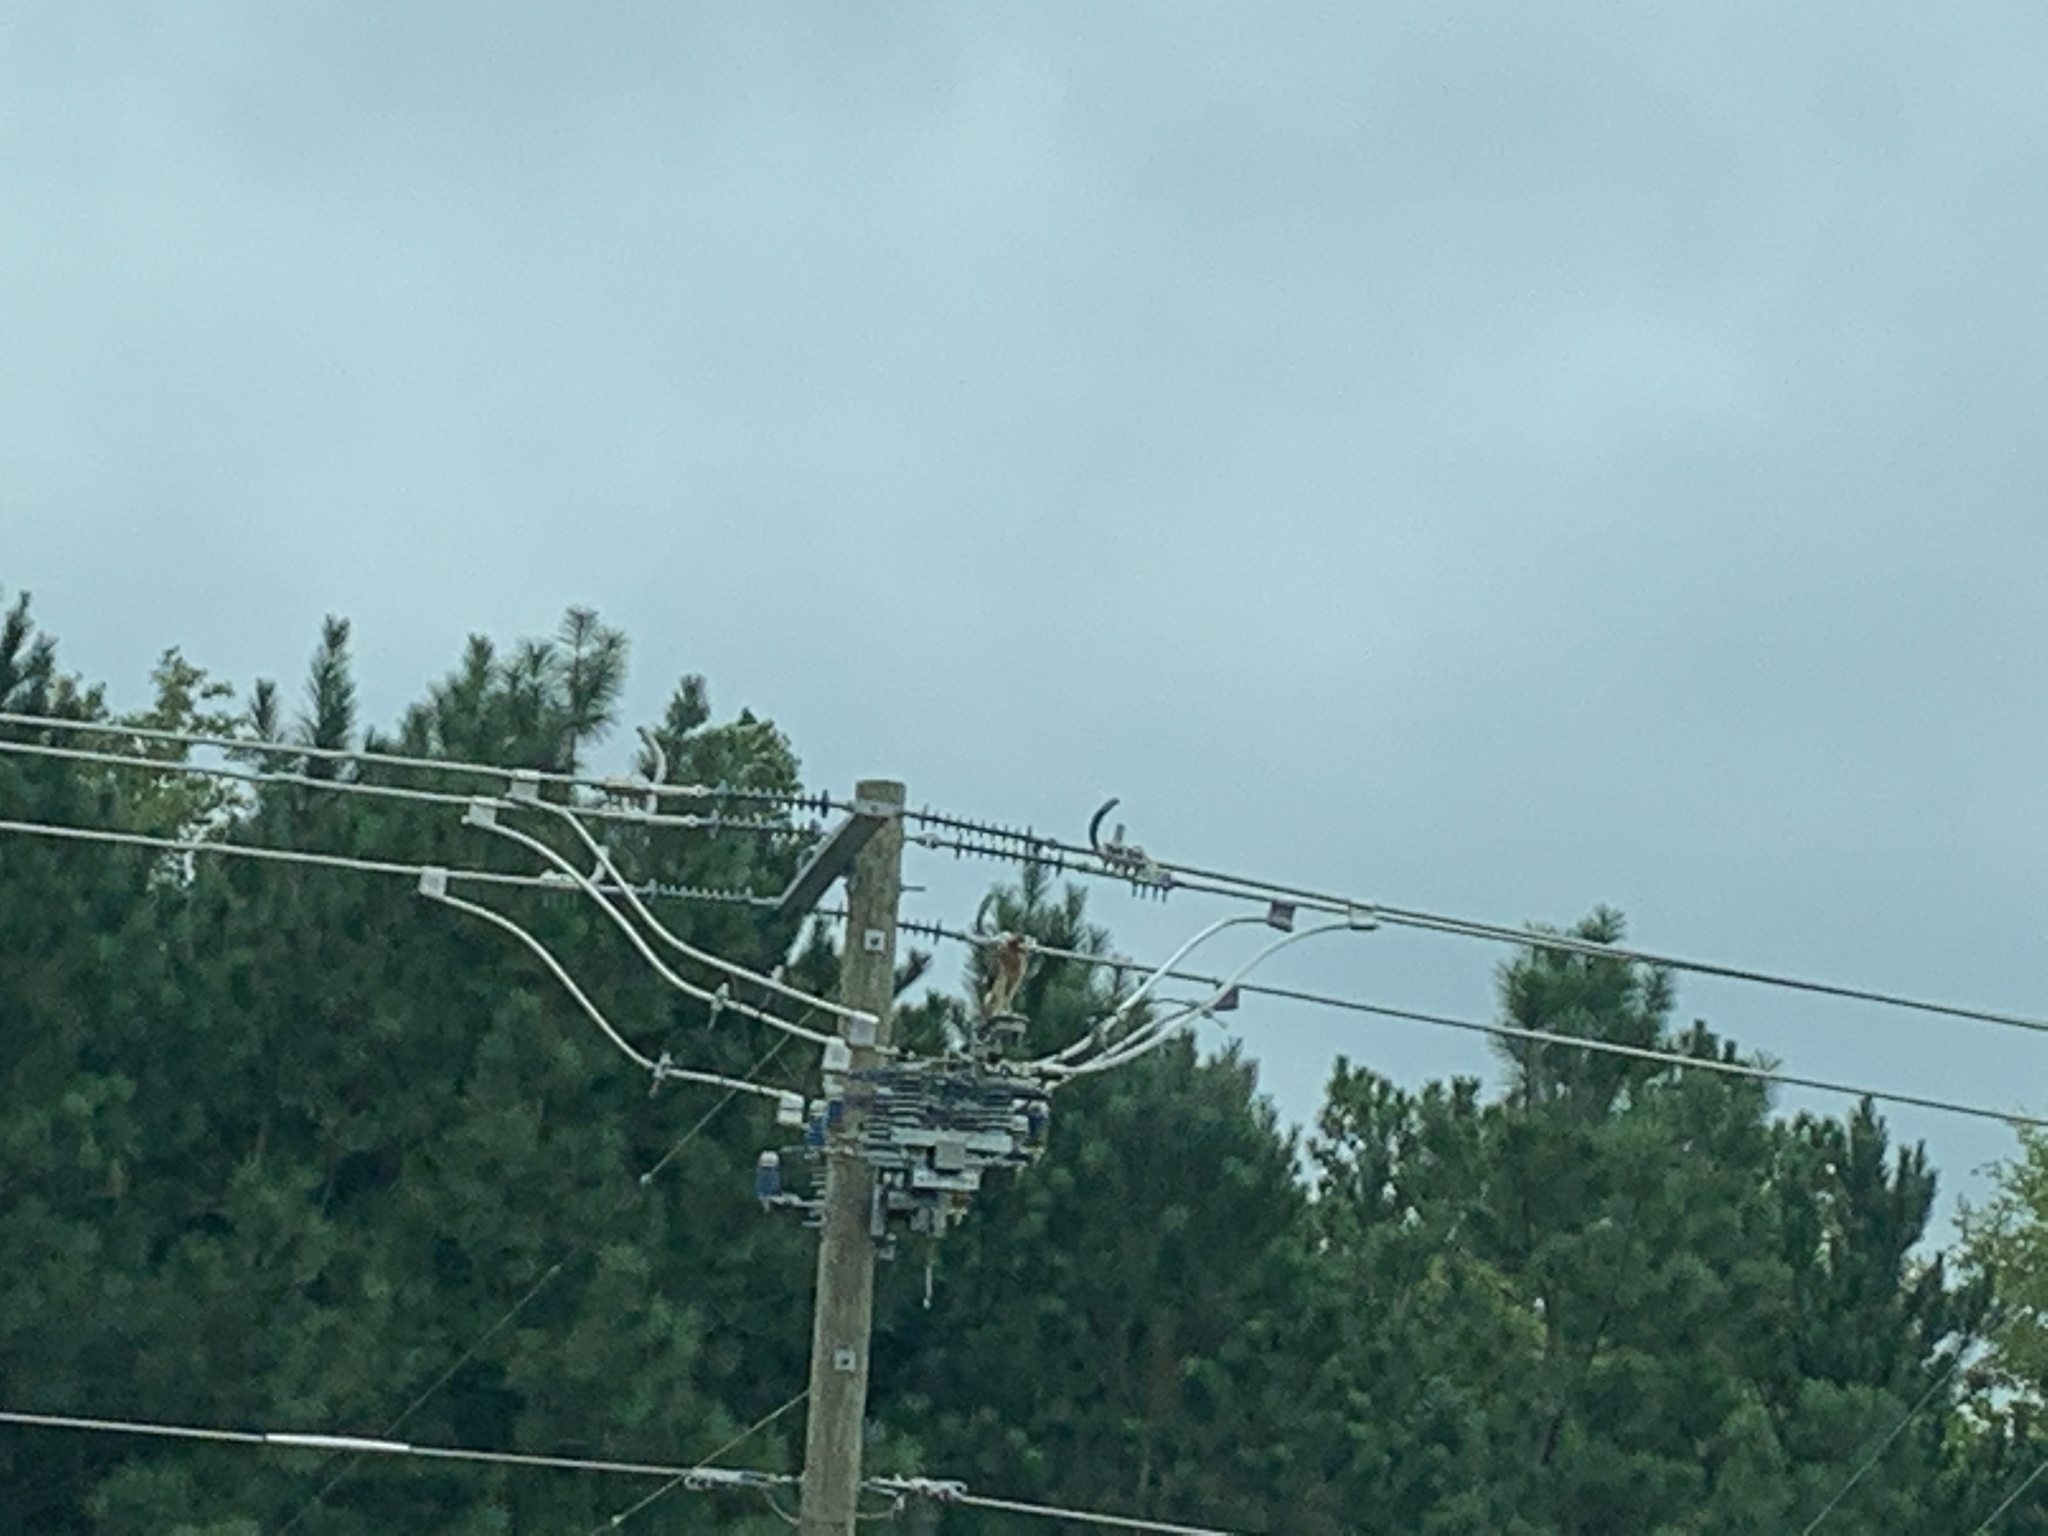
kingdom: Animalia
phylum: Chordata
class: Aves
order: Accipitriformes
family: Accipitridae
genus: Buteo
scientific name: Buteo jamaicensis
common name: Red-tailed hawk
